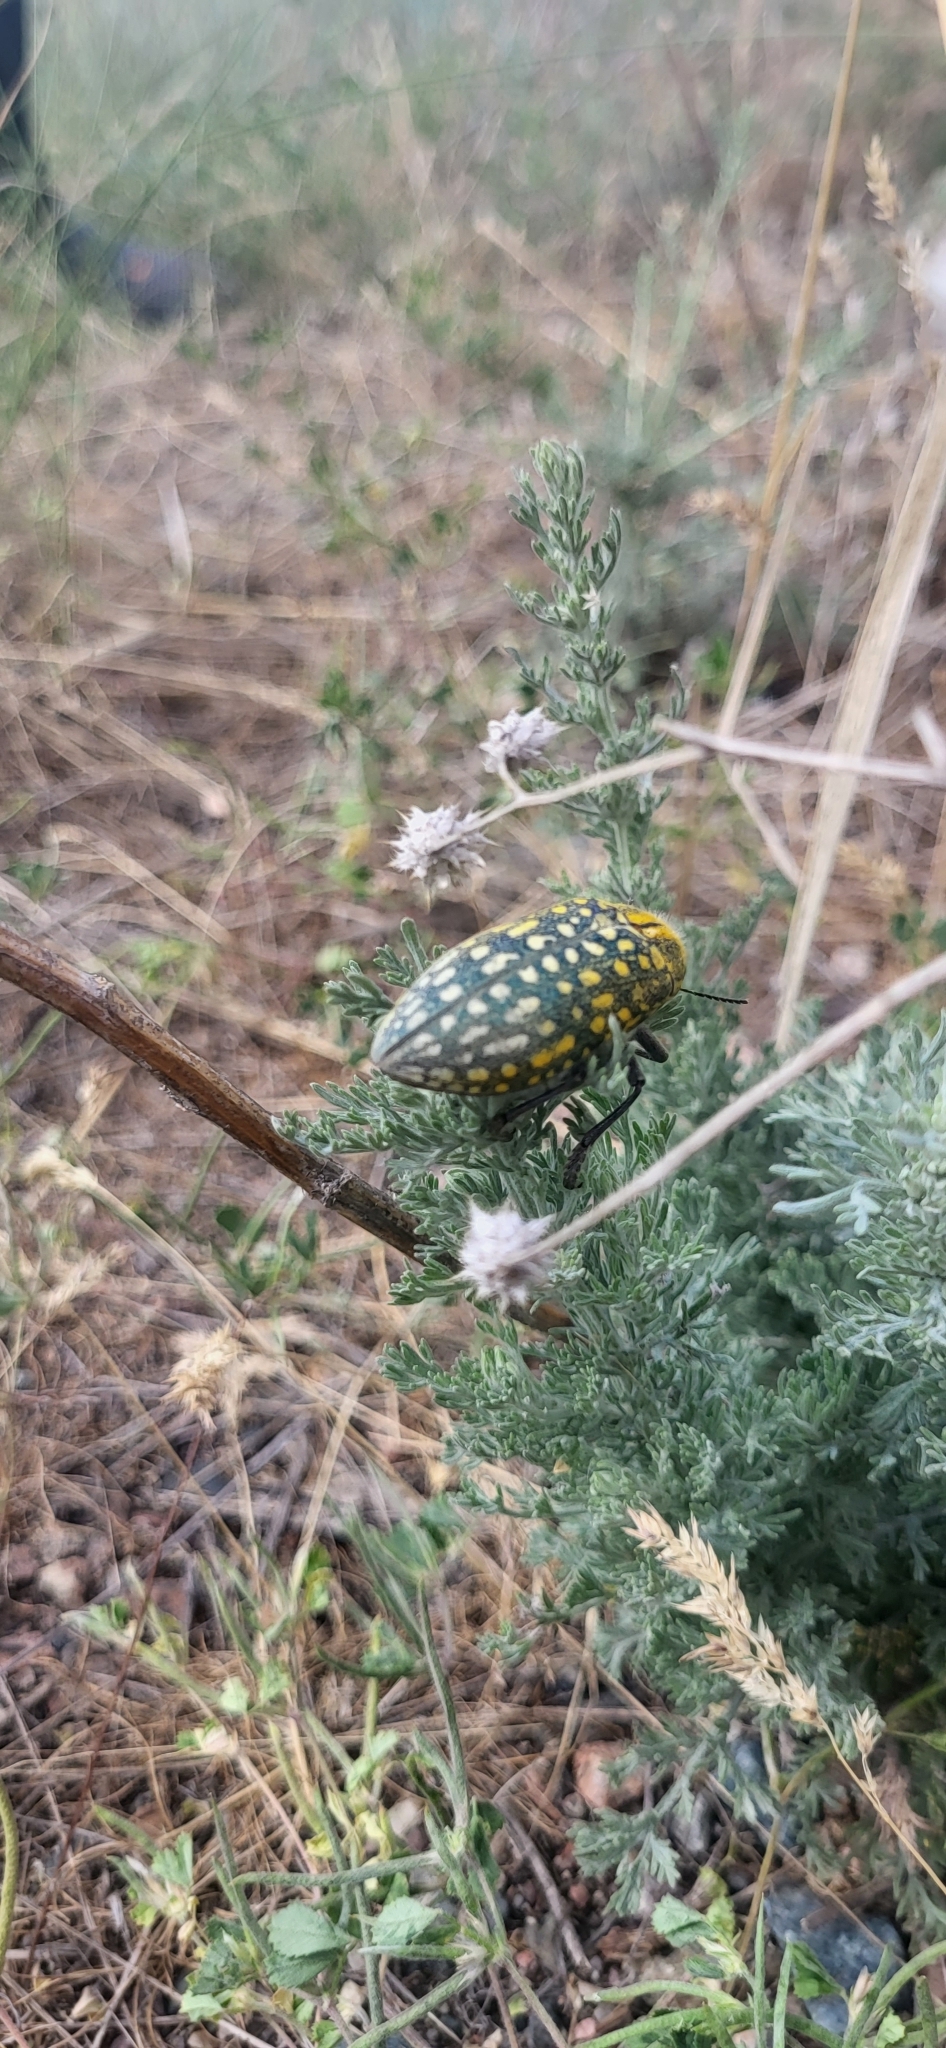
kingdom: Animalia
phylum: Arthropoda
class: Insecta
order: Coleoptera
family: Buprestidae
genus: Julodis
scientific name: Julodis variolaris
